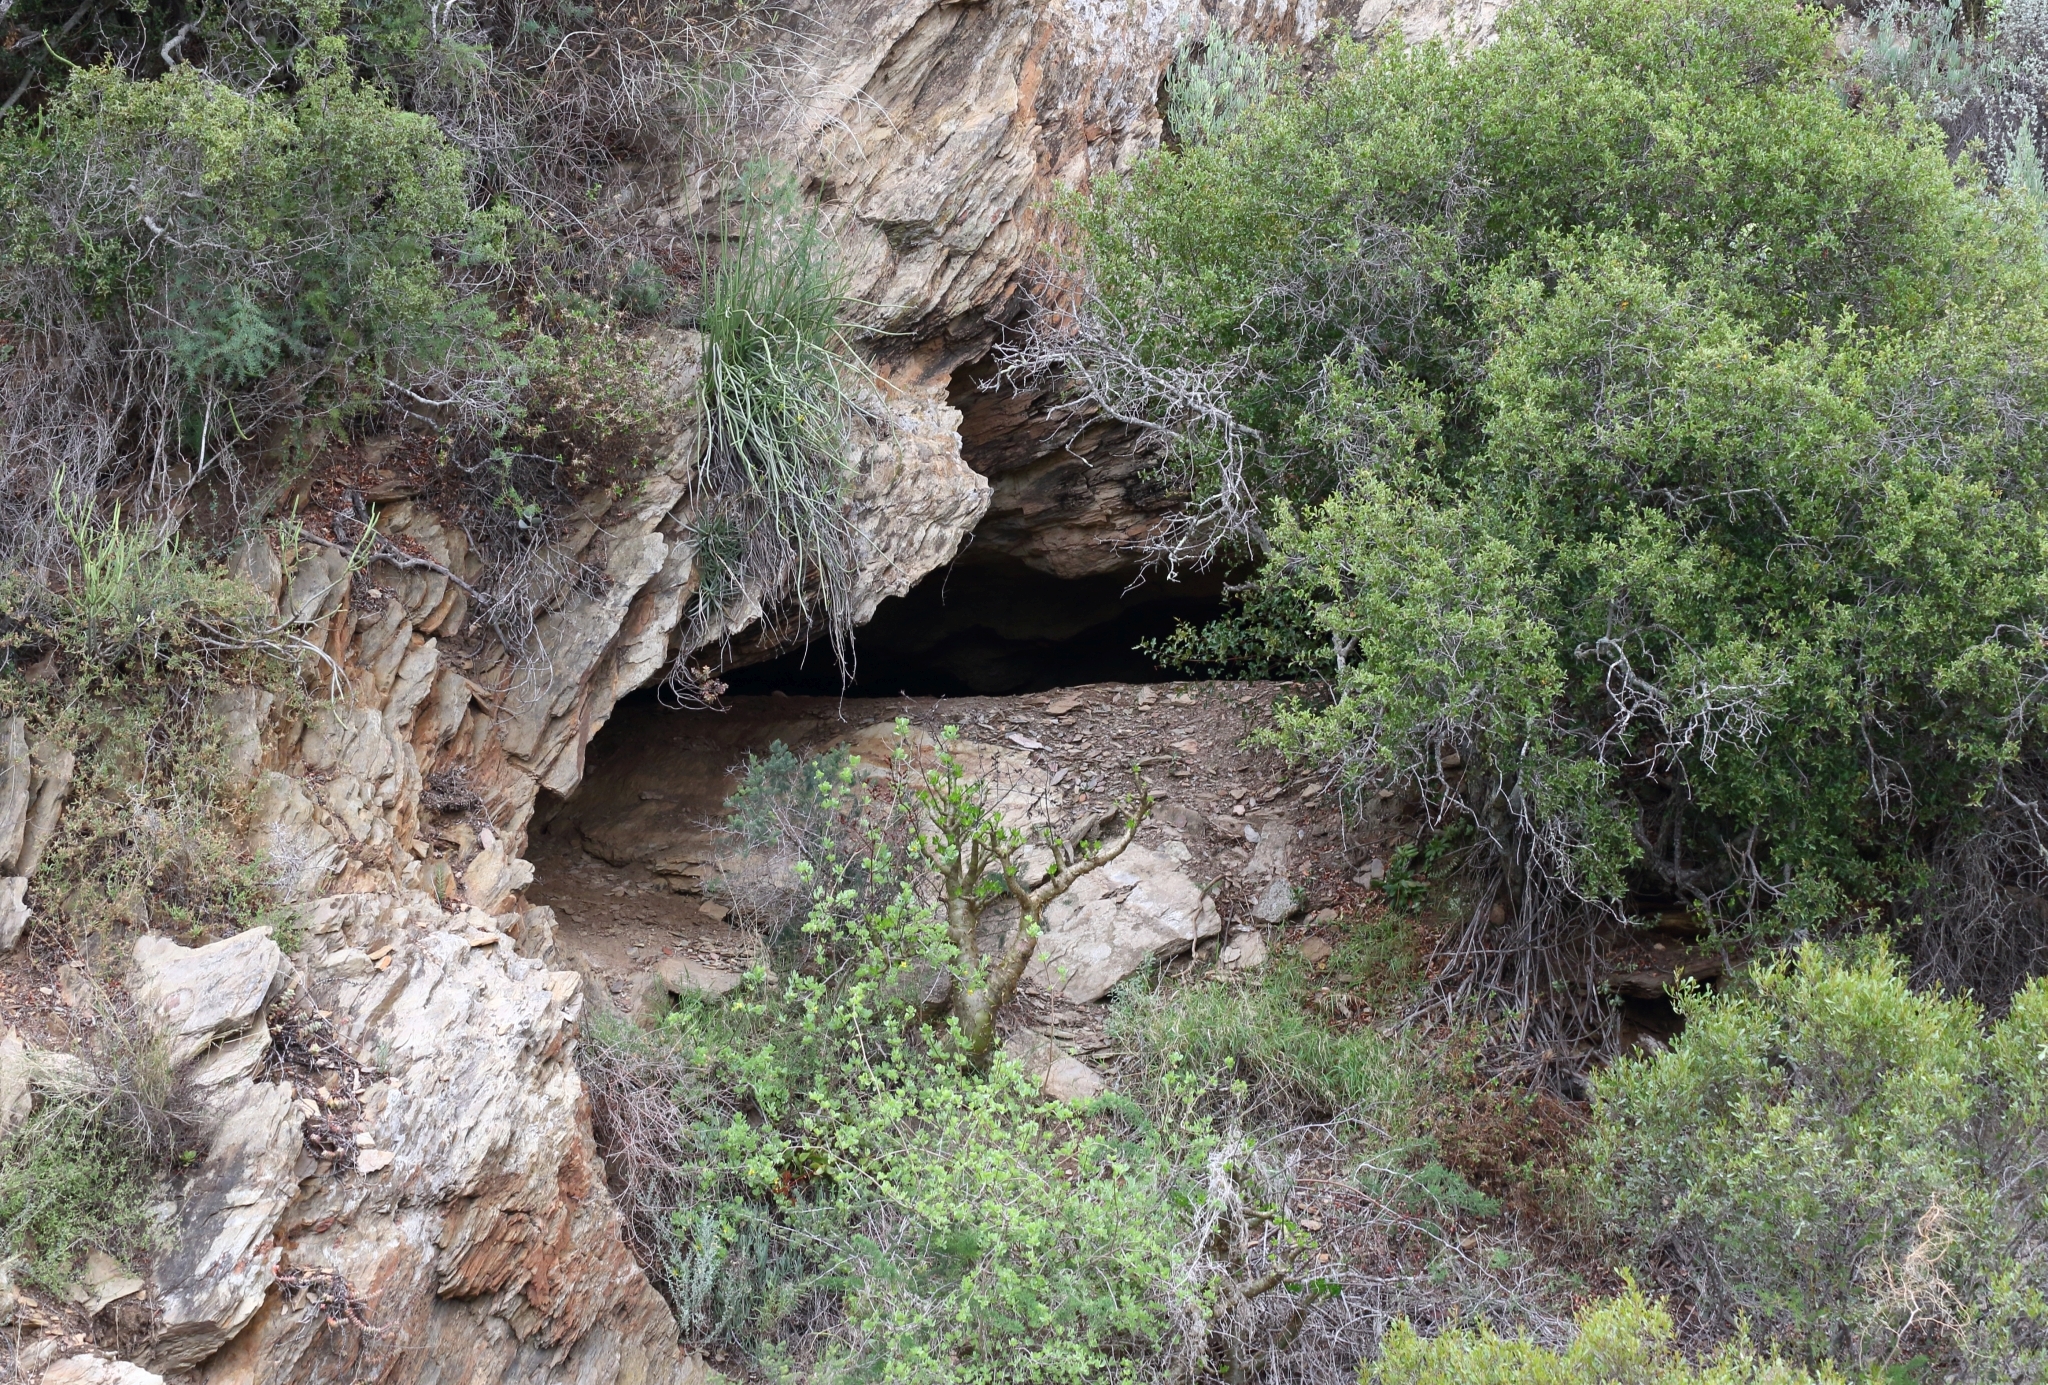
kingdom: Plantae
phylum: Tracheophyta
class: Magnoliopsida
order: Saxifragales
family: Crassulaceae
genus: Tylecodon
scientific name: Tylecodon paniculatus
